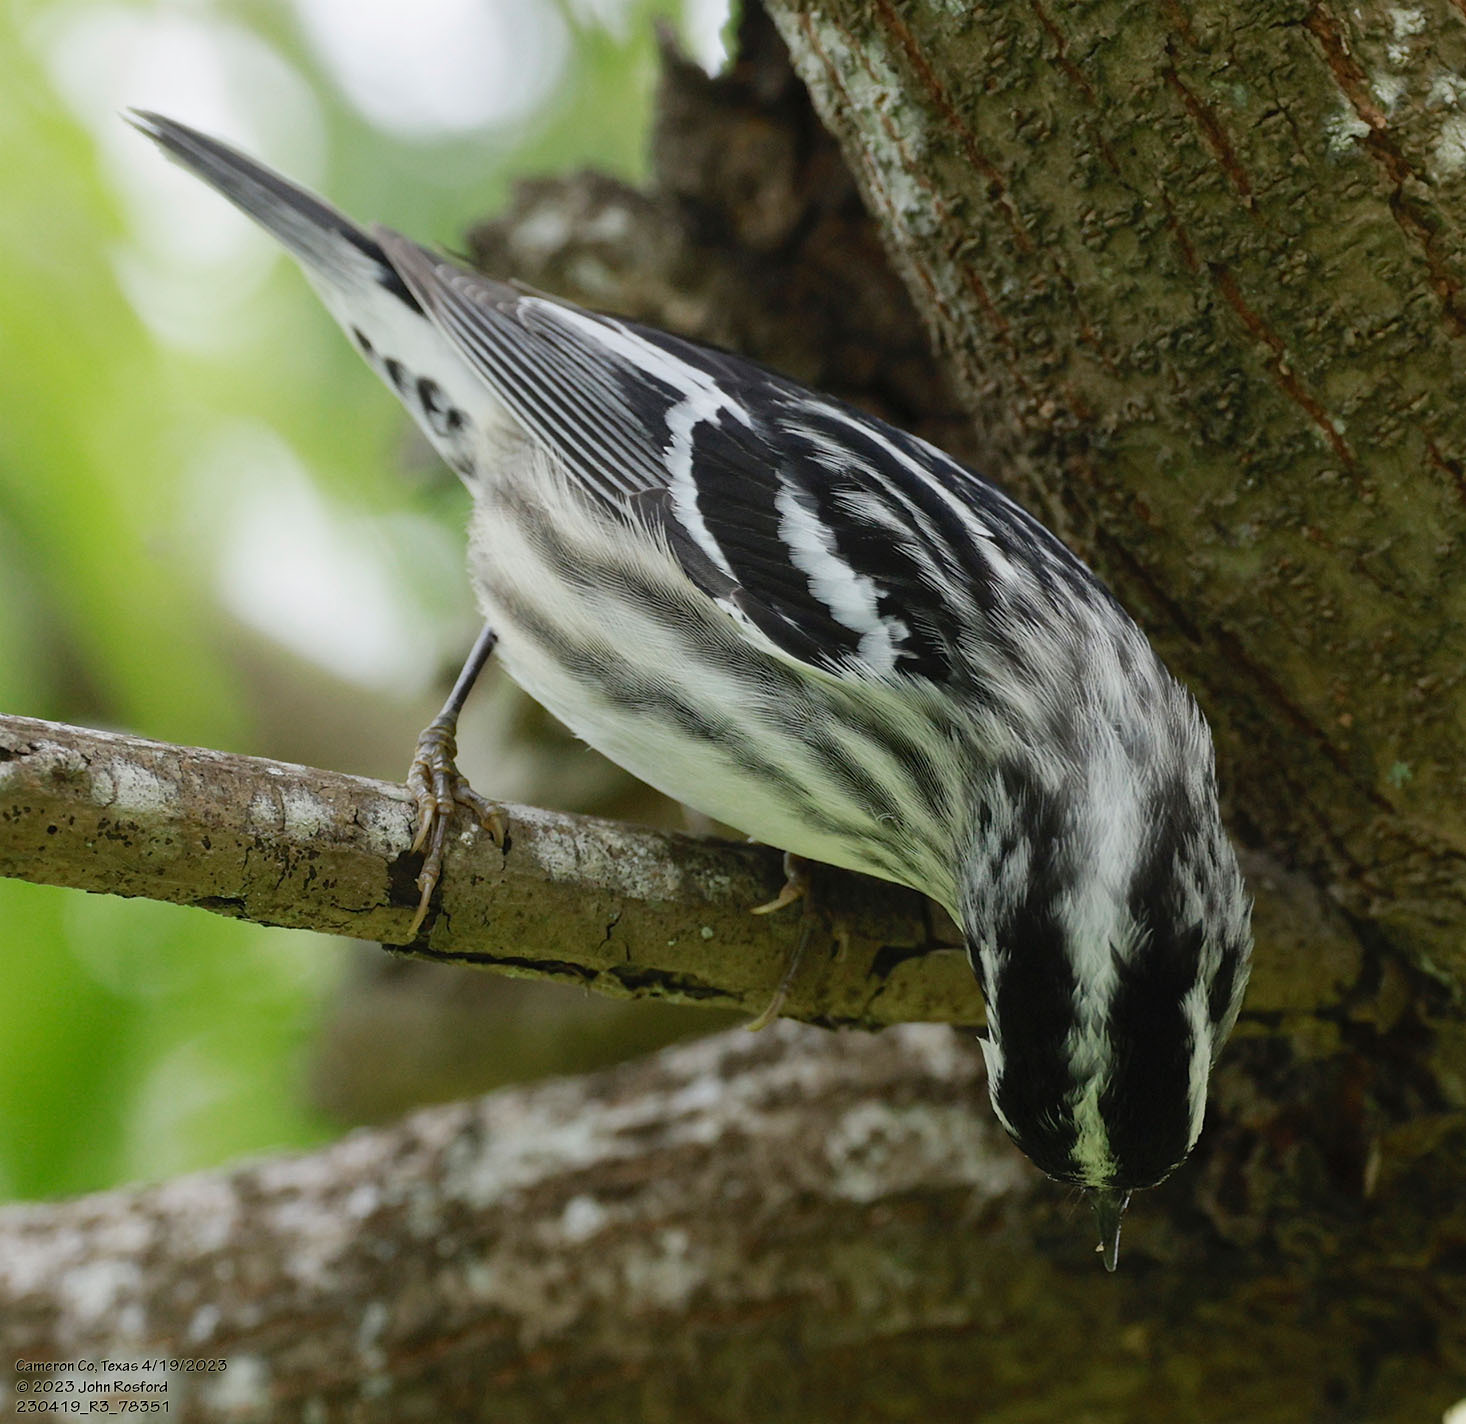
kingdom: Animalia
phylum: Chordata
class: Aves
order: Passeriformes
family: Parulidae
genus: Mniotilta
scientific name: Mniotilta varia
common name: Black-and-white warbler
